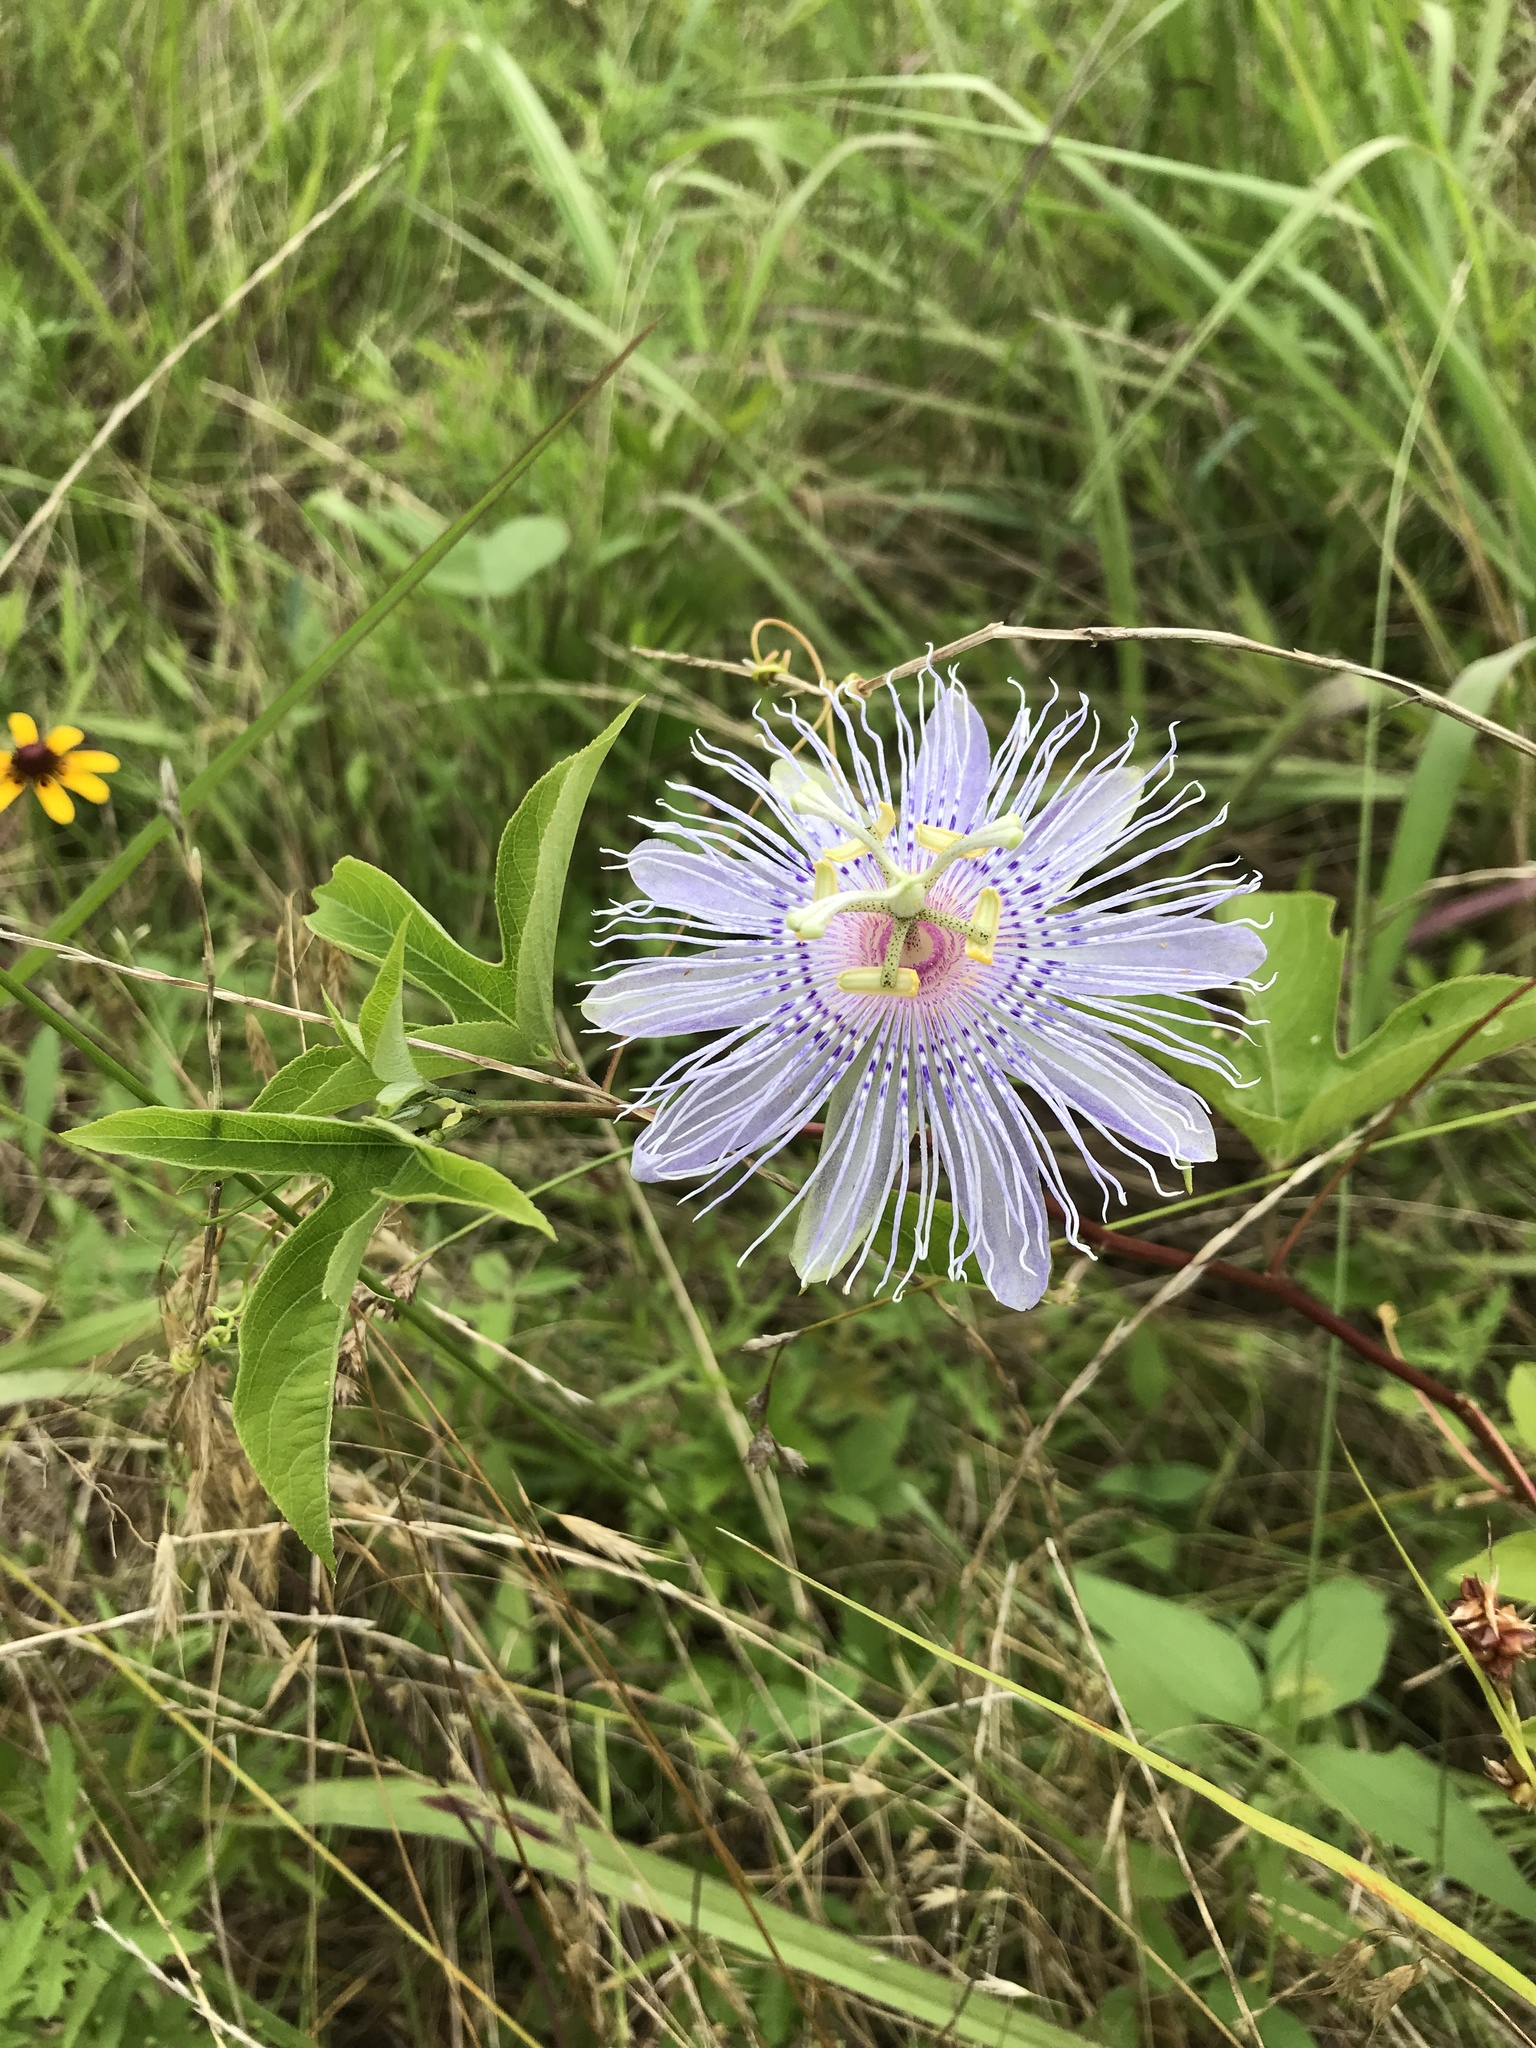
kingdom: Plantae
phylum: Tracheophyta
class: Magnoliopsida
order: Malpighiales
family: Passifloraceae
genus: Passiflora
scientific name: Passiflora incarnata
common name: Apricot-vine
